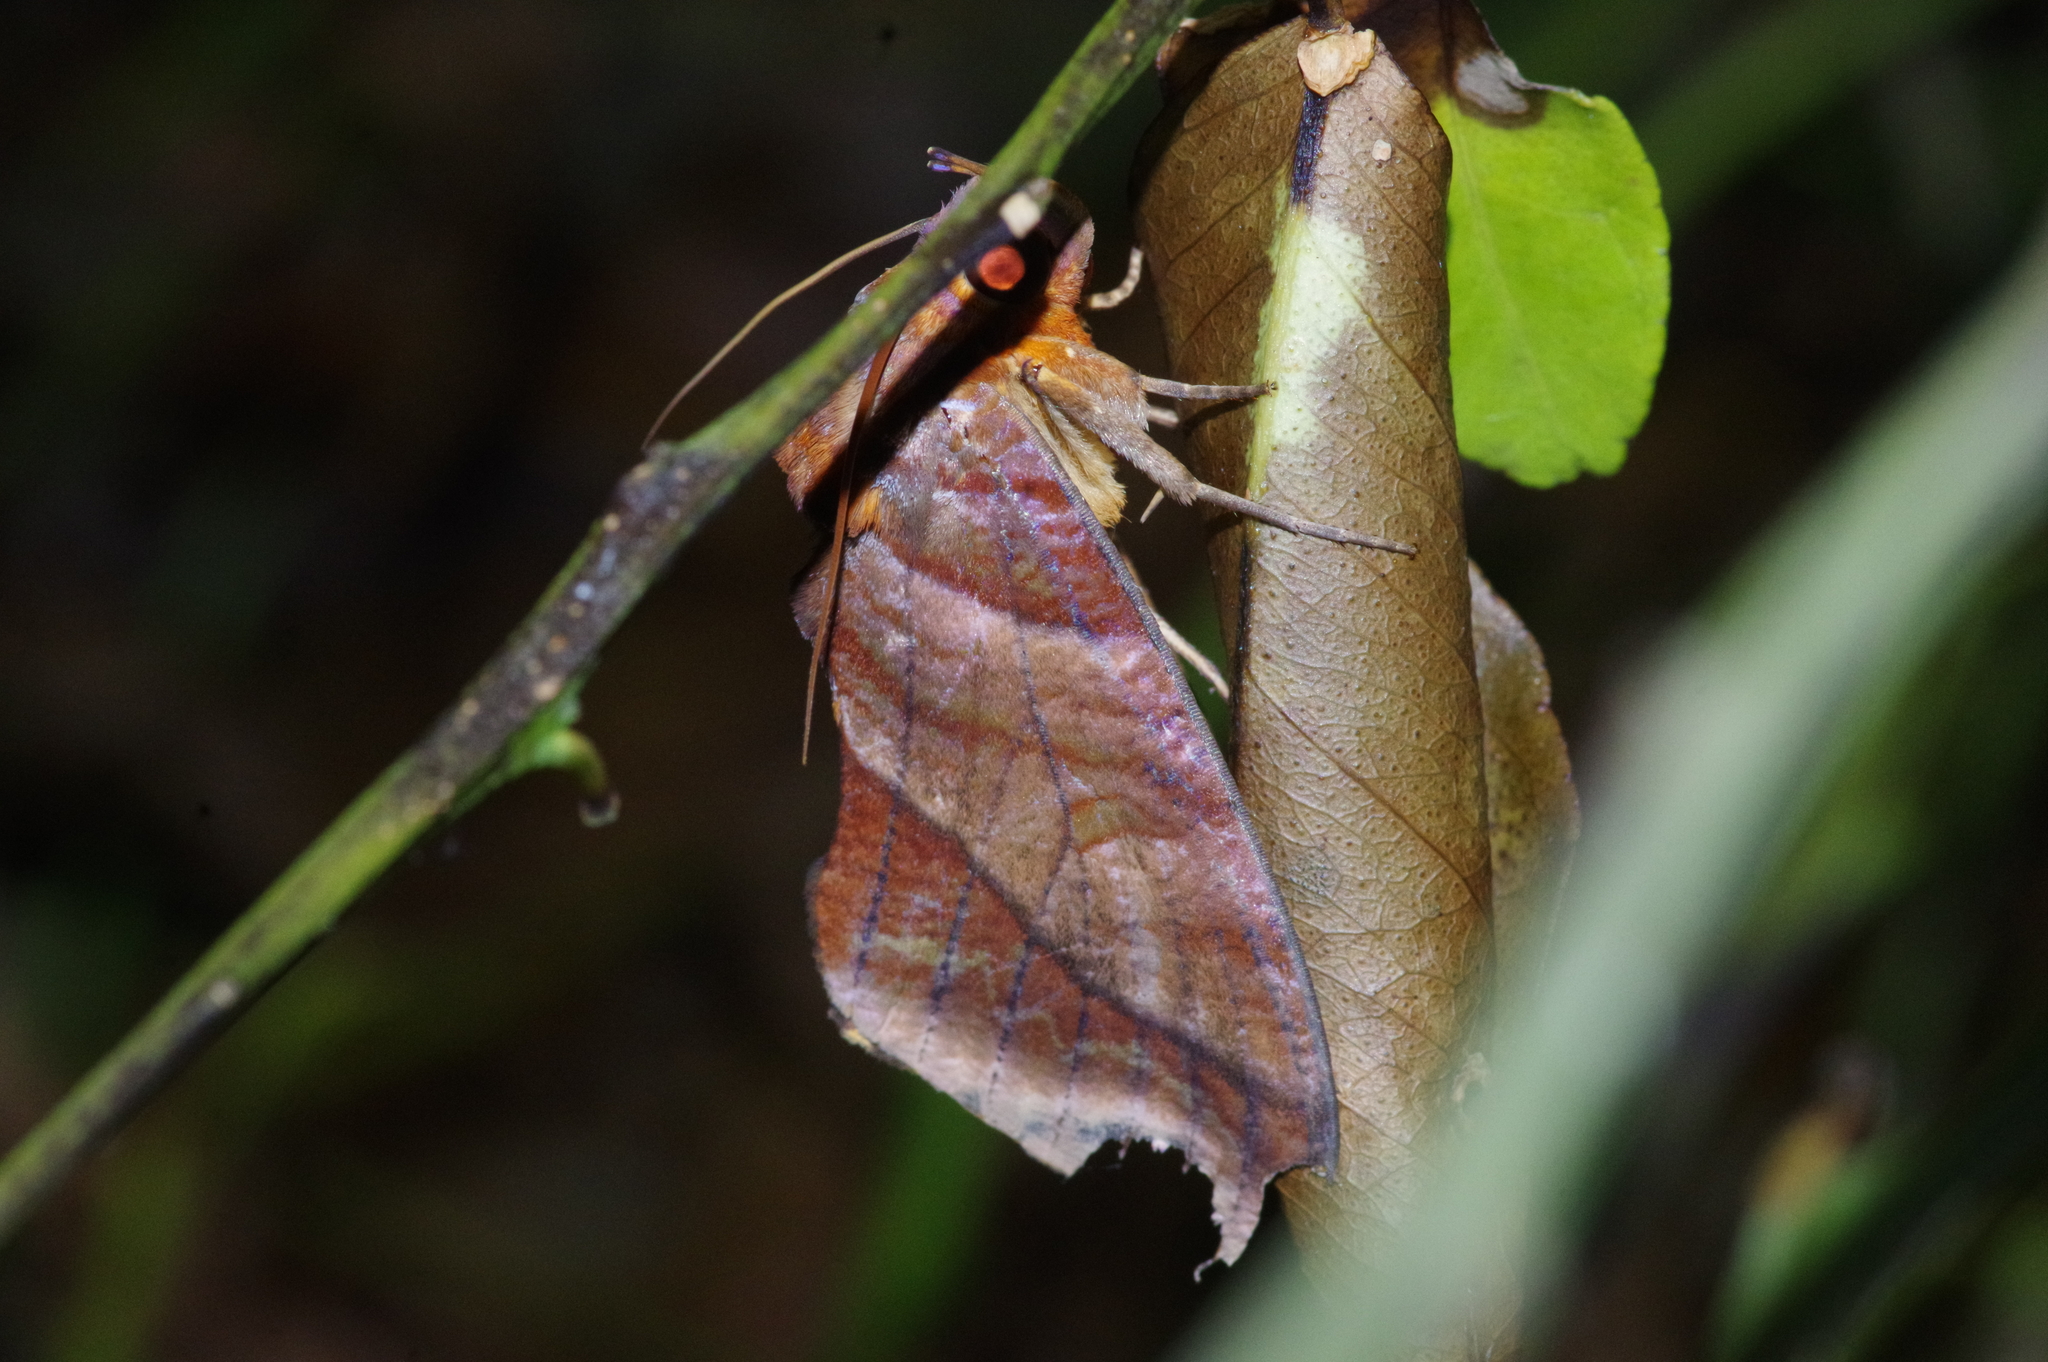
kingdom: Animalia
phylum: Arthropoda
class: Insecta
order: Lepidoptera
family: Erebidae
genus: Eudocima
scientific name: Eudocima homaena
